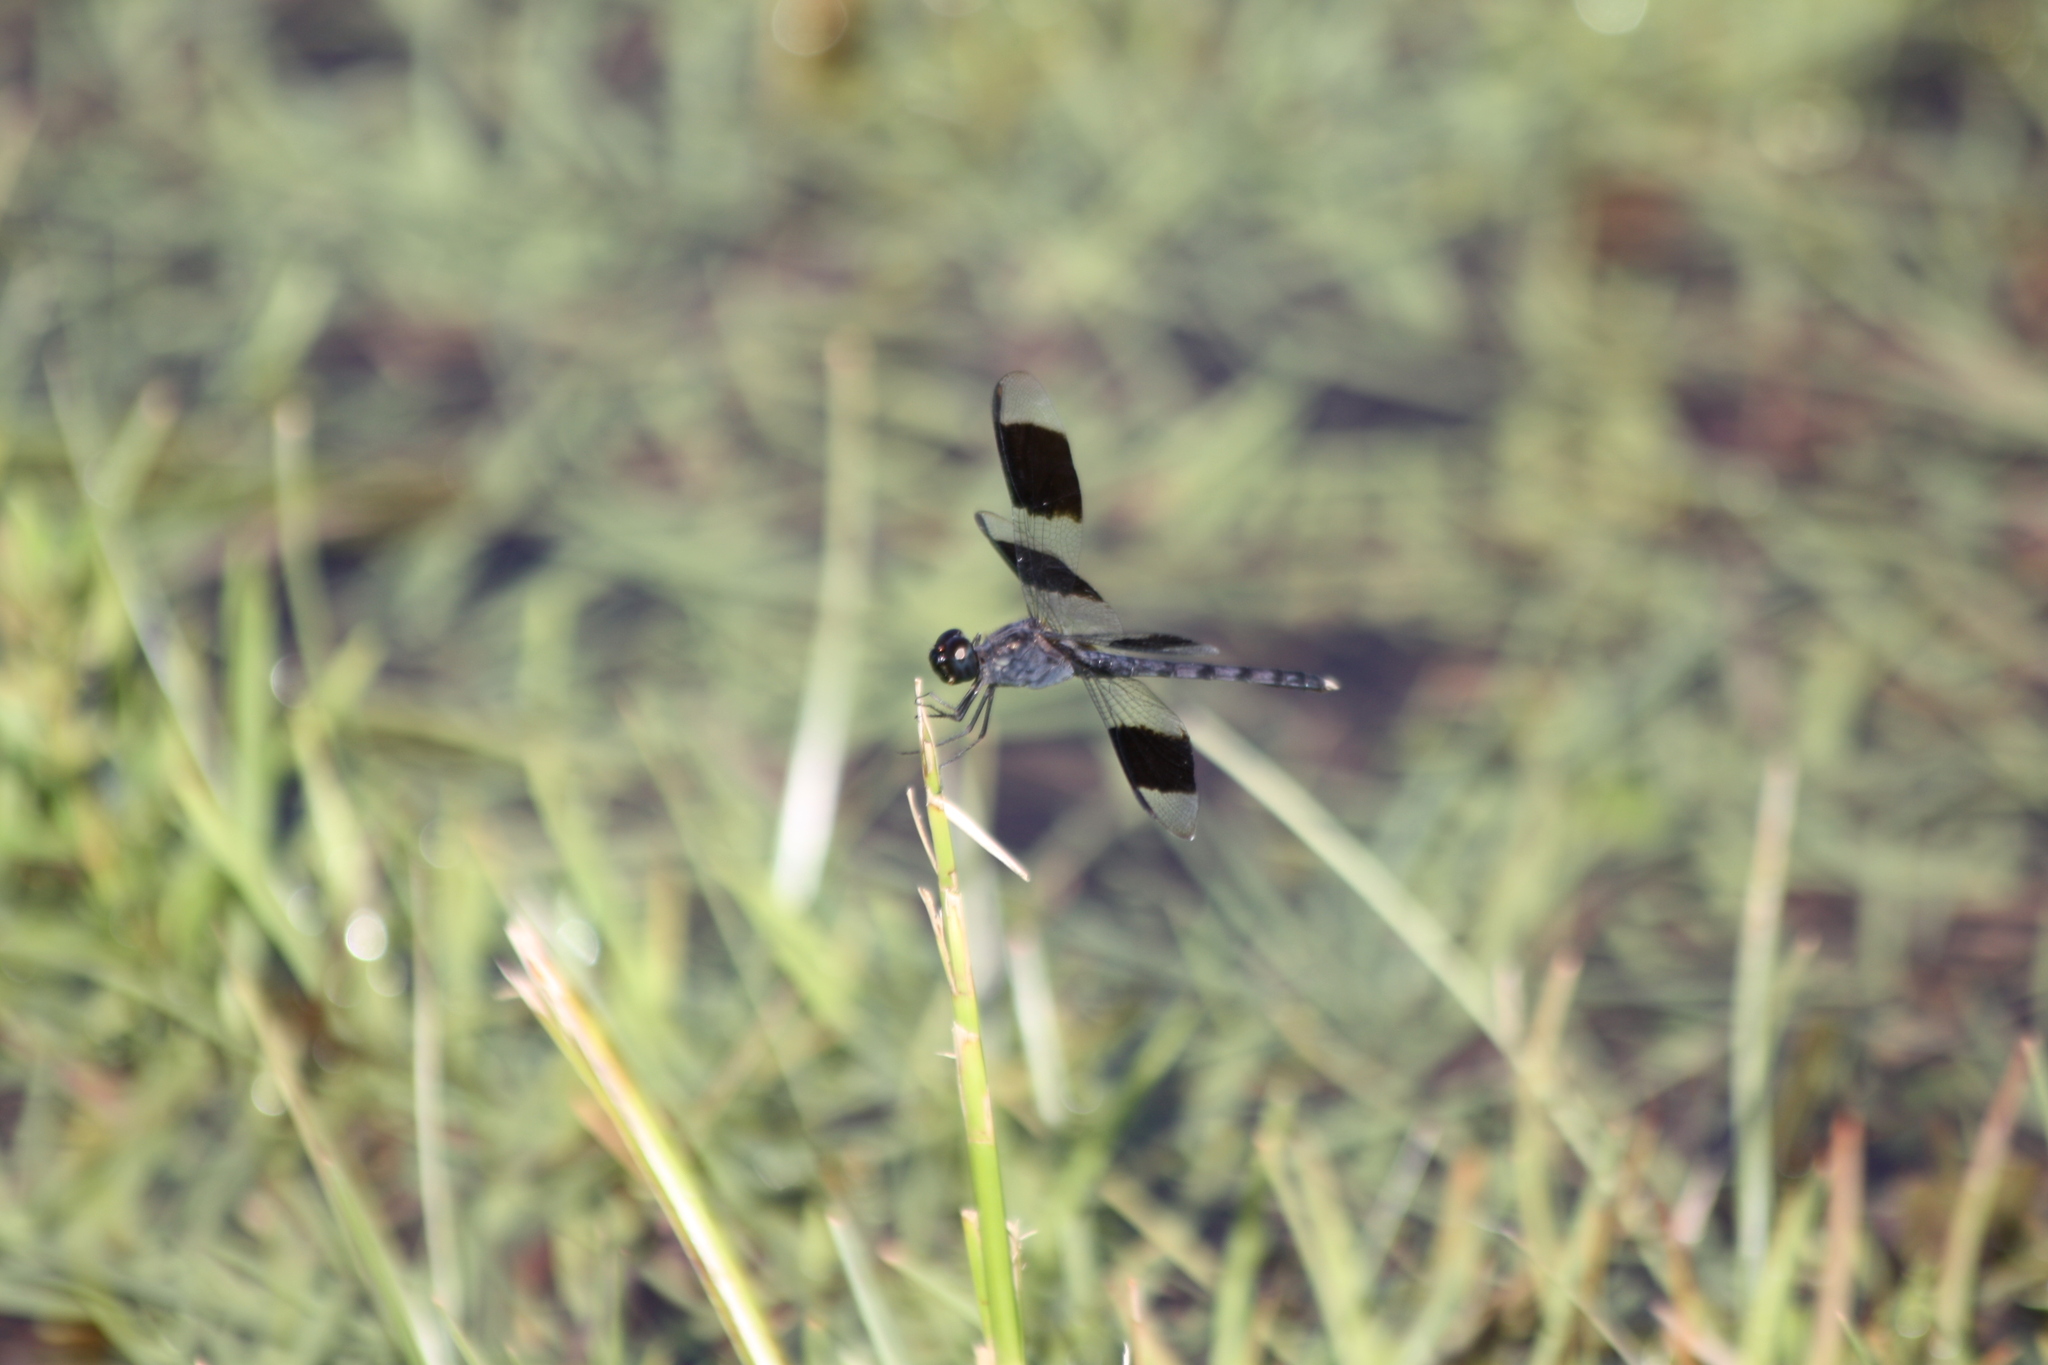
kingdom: Animalia
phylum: Arthropoda
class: Insecta
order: Odonata
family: Libellulidae
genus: Erythrodiplax
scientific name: Erythrodiplax umbrata
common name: Band-winged dragonlet
